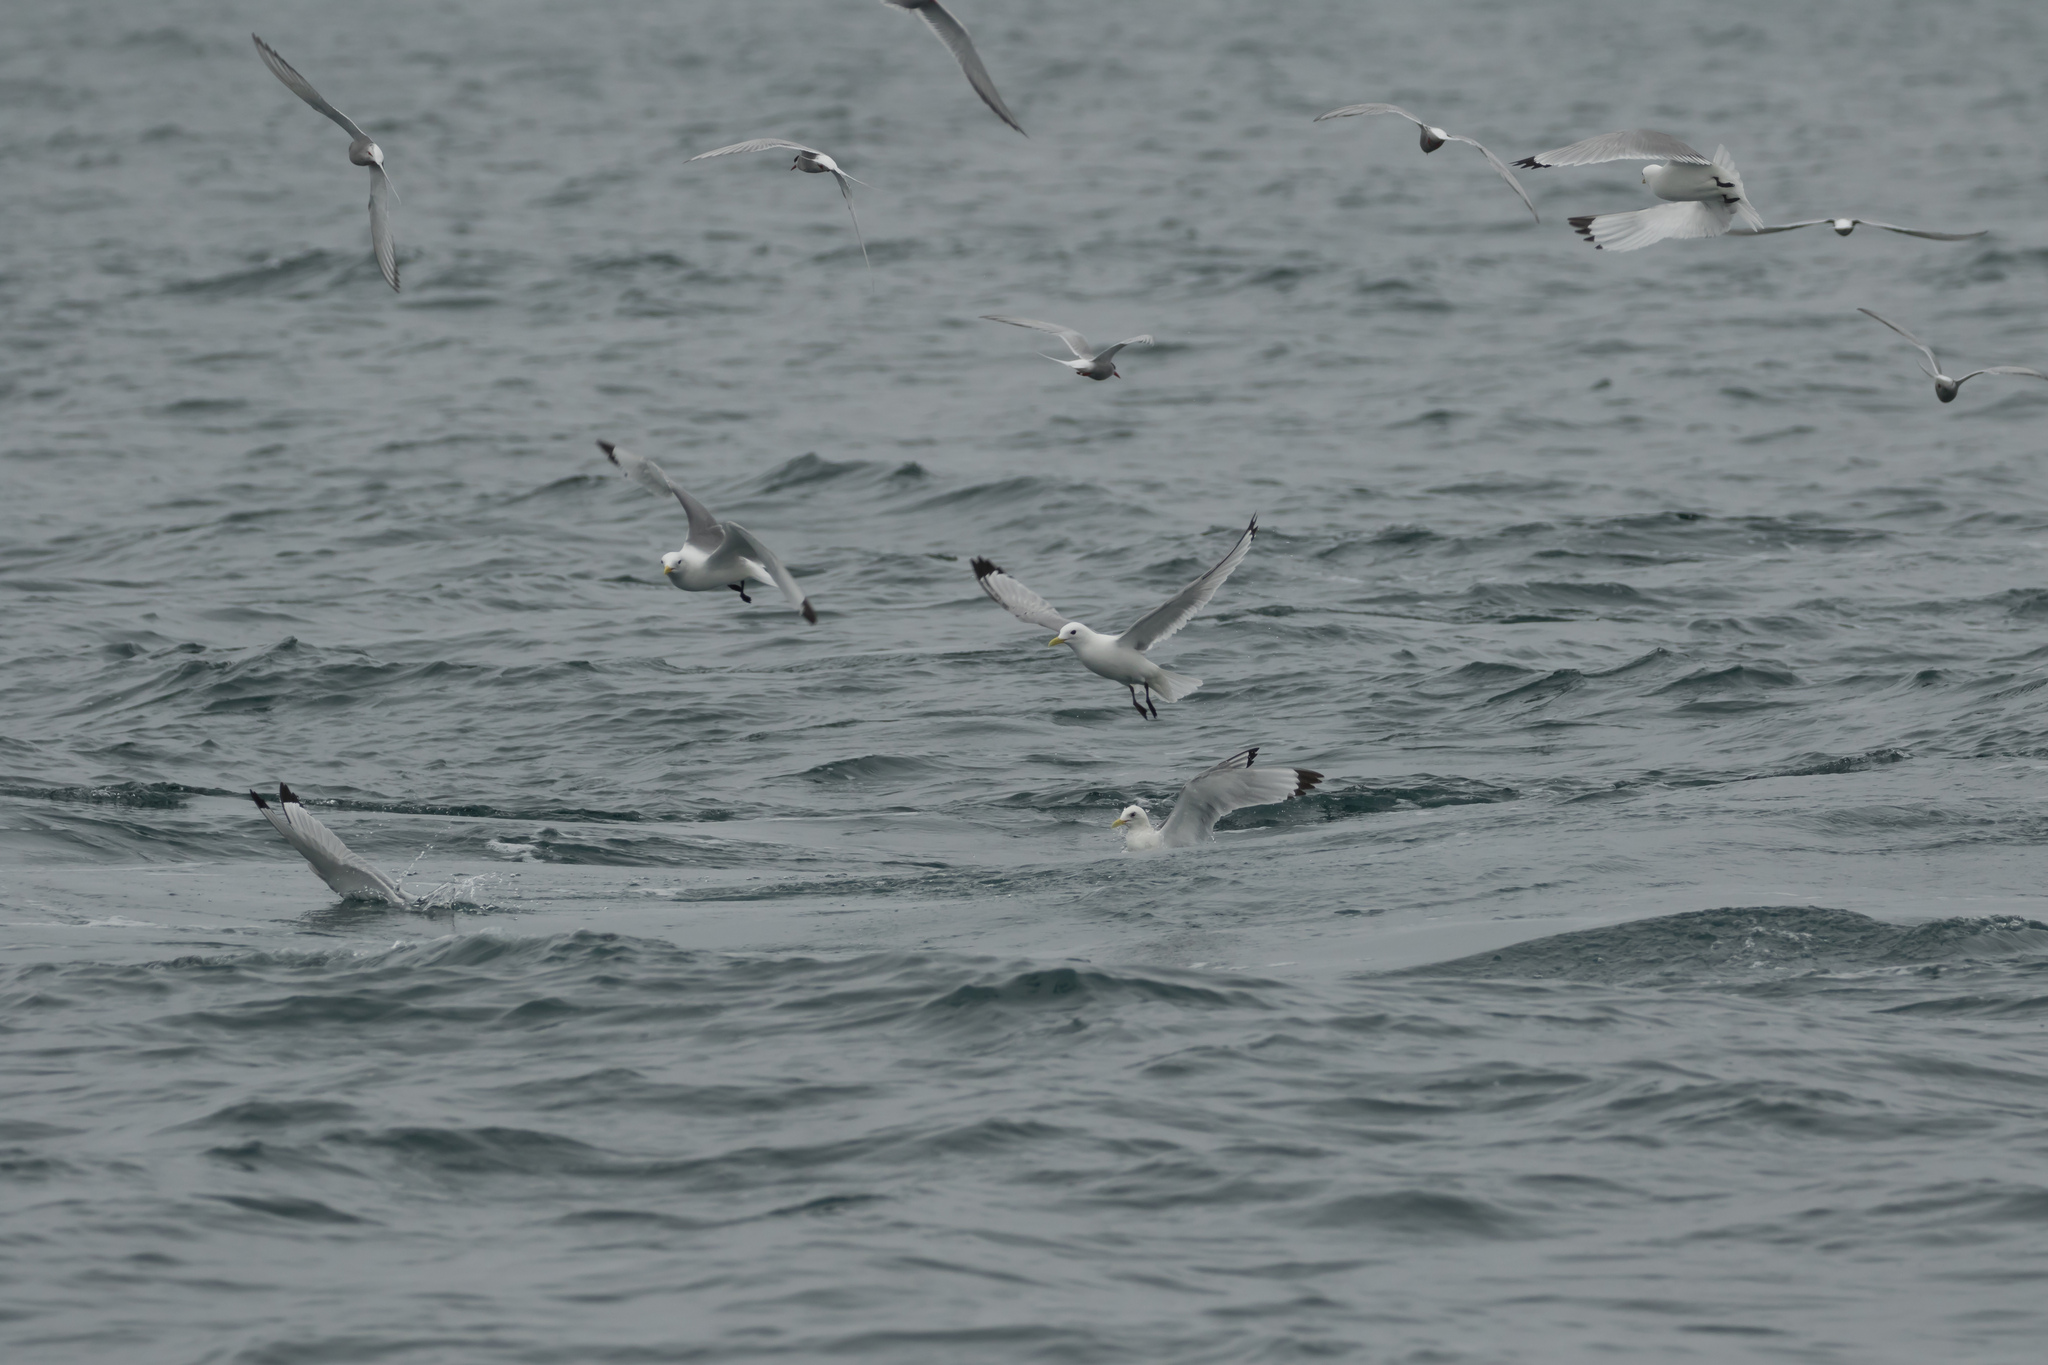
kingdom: Animalia
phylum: Chordata
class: Aves
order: Charadriiformes
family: Laridae
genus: Rissa
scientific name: Rissa tridactyla
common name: Black-legged kittiwake
